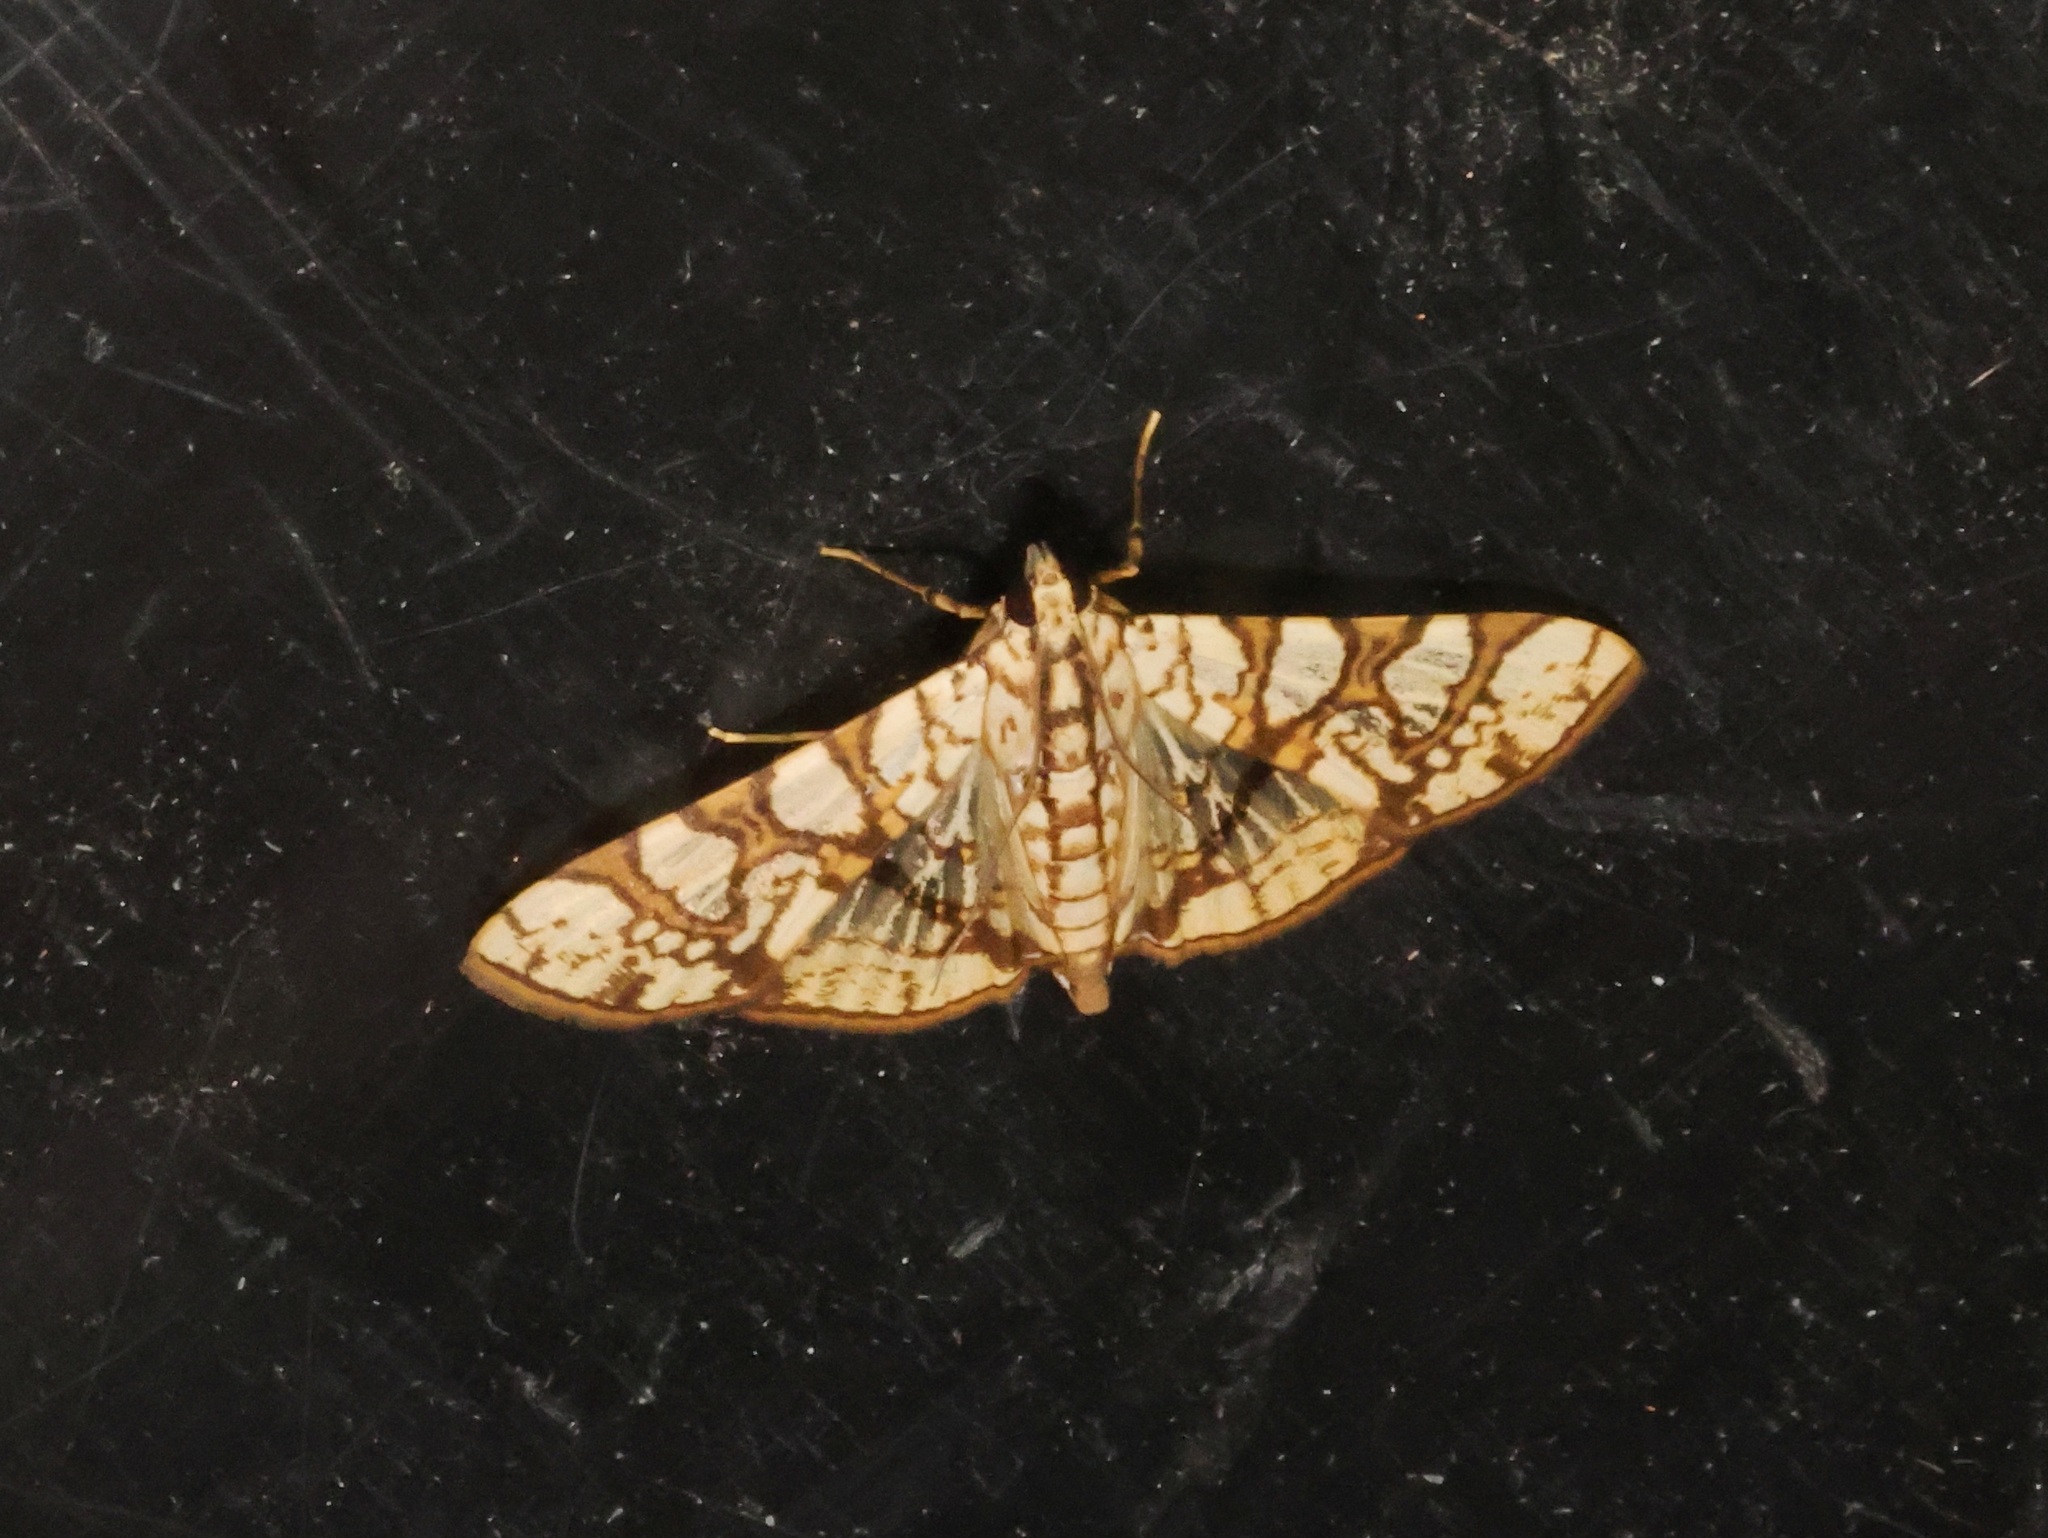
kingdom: Animalia
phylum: Arthropoda
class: Insecta
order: Lepidoptera
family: Crambidae
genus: Glyphodes
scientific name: Glyphodes caesalis
